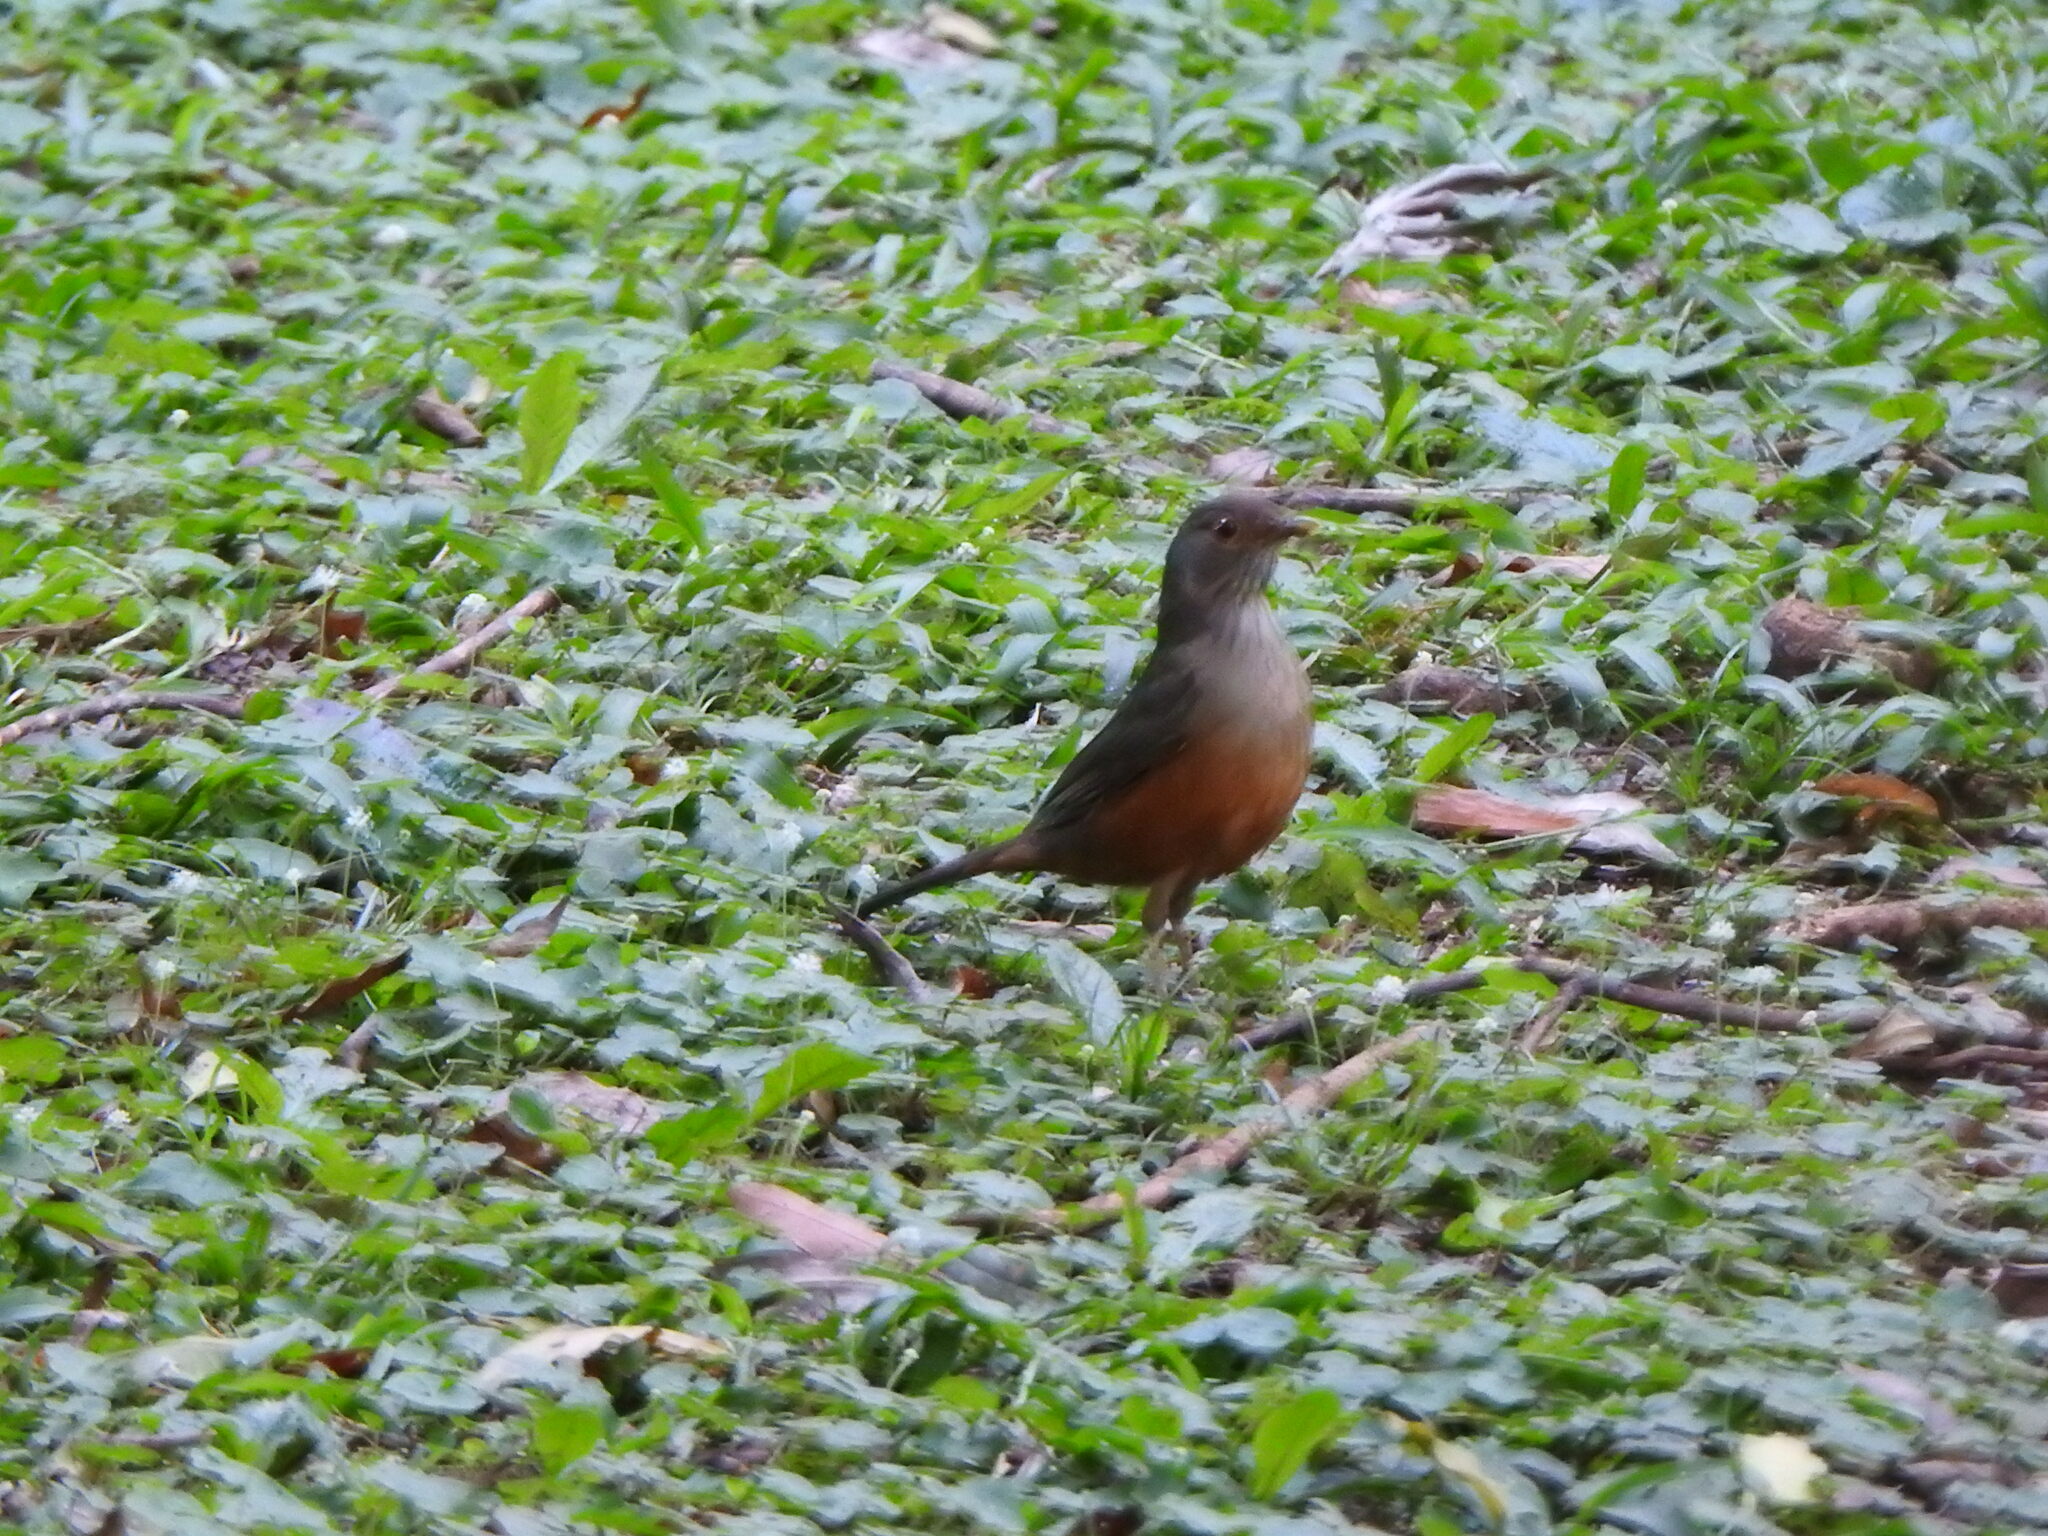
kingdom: Animalia
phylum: Chordata
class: Aves
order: Passeriformes
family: Turdidae
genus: Turdus
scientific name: Turdus rufiventris
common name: Rufous-bellied thrush
